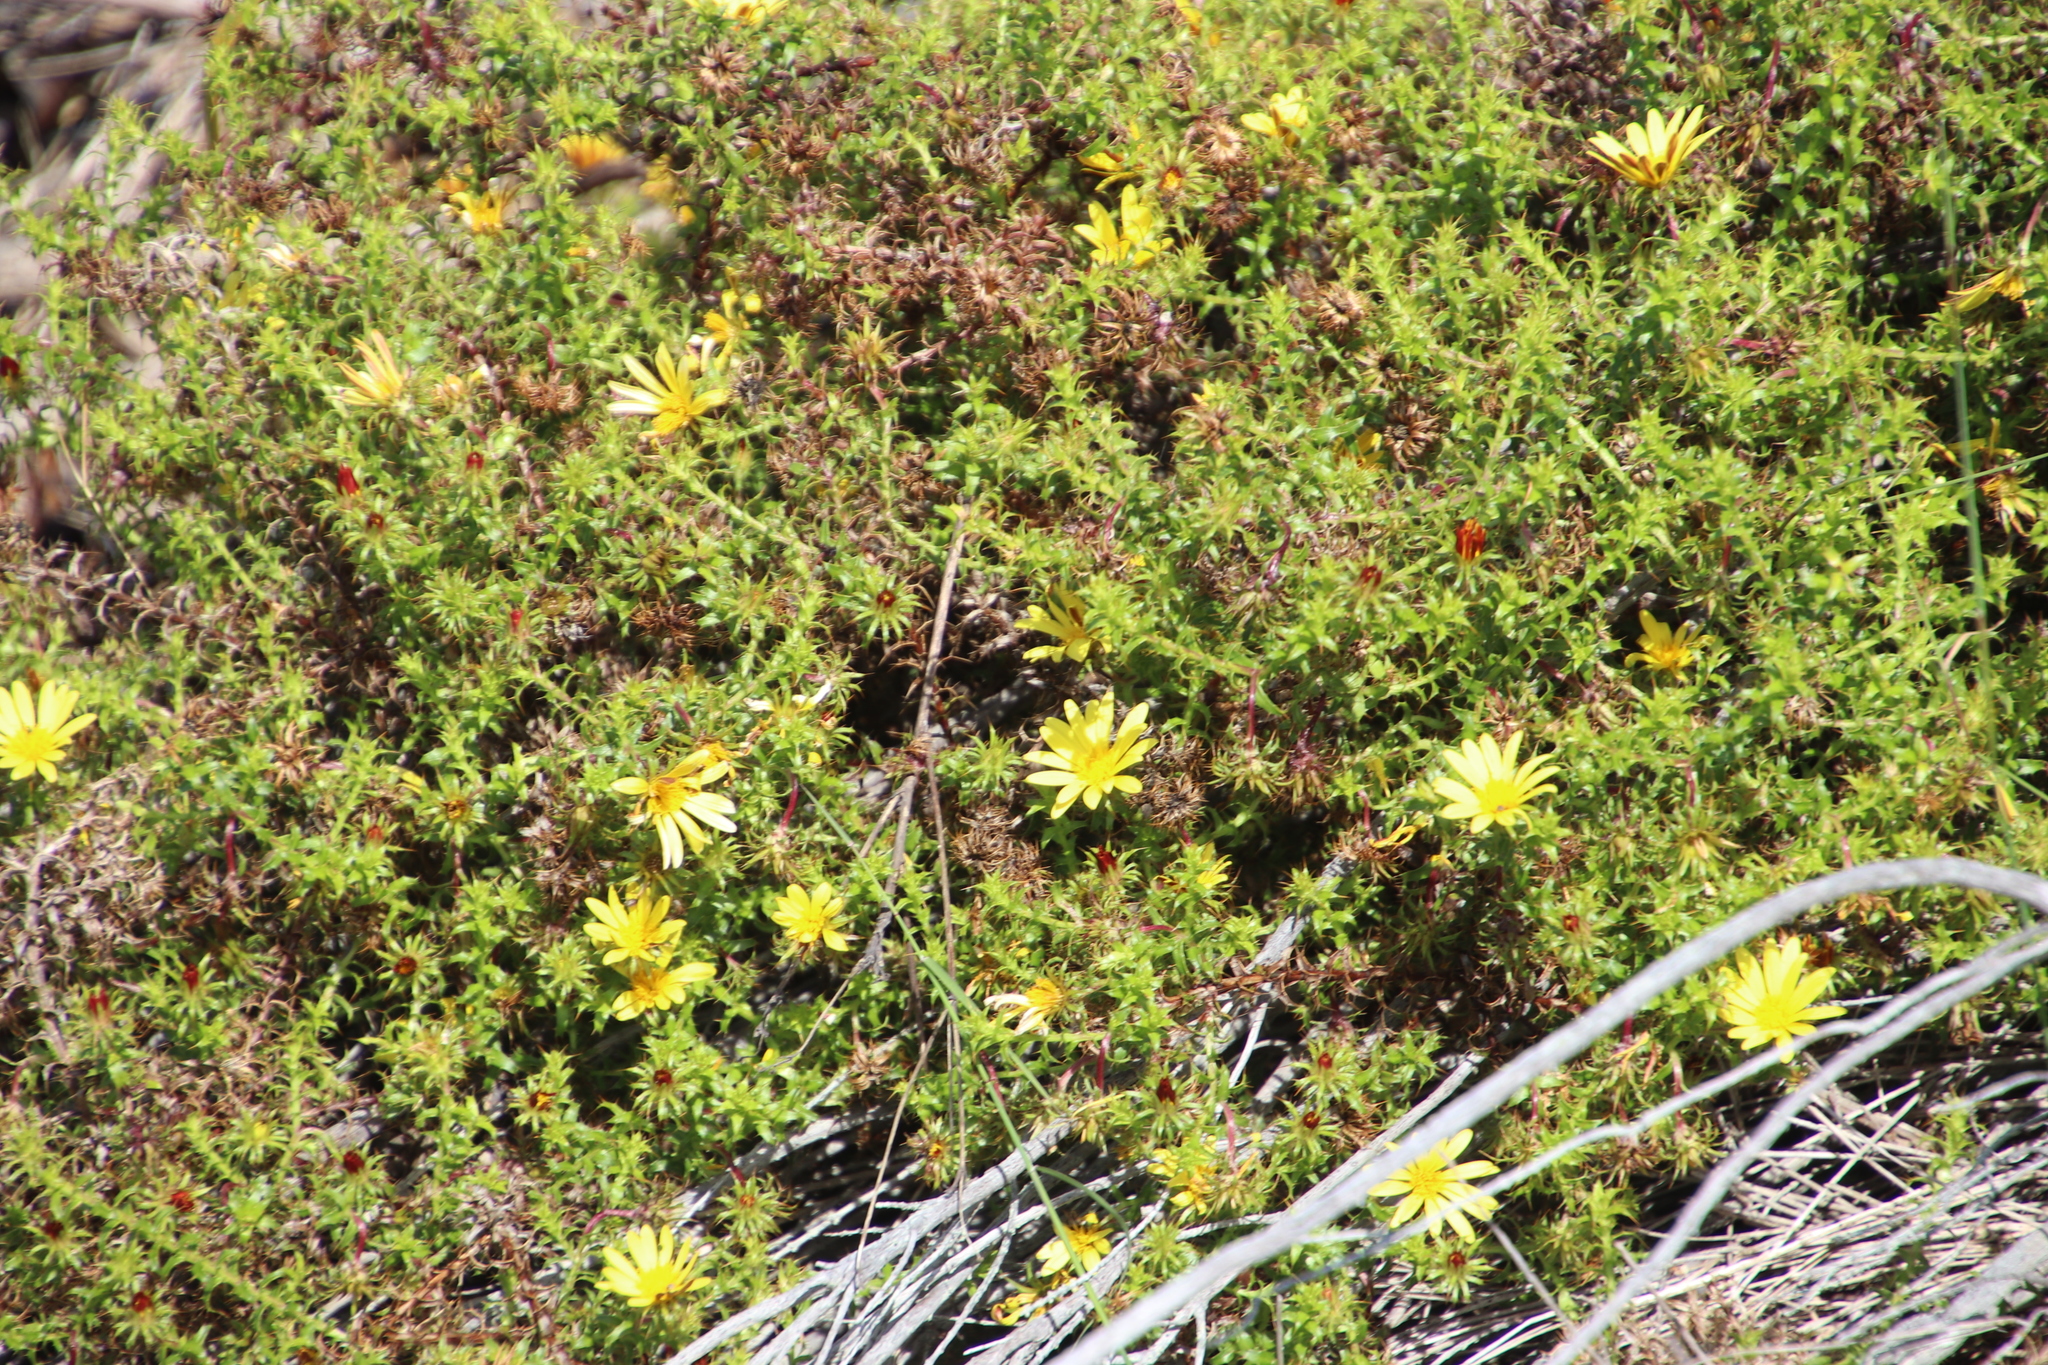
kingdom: Plantae
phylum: Tracheophyta
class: Magnoliopsida
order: Asterales
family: Asteraceae
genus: Cullumia
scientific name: Cullumia setosa
